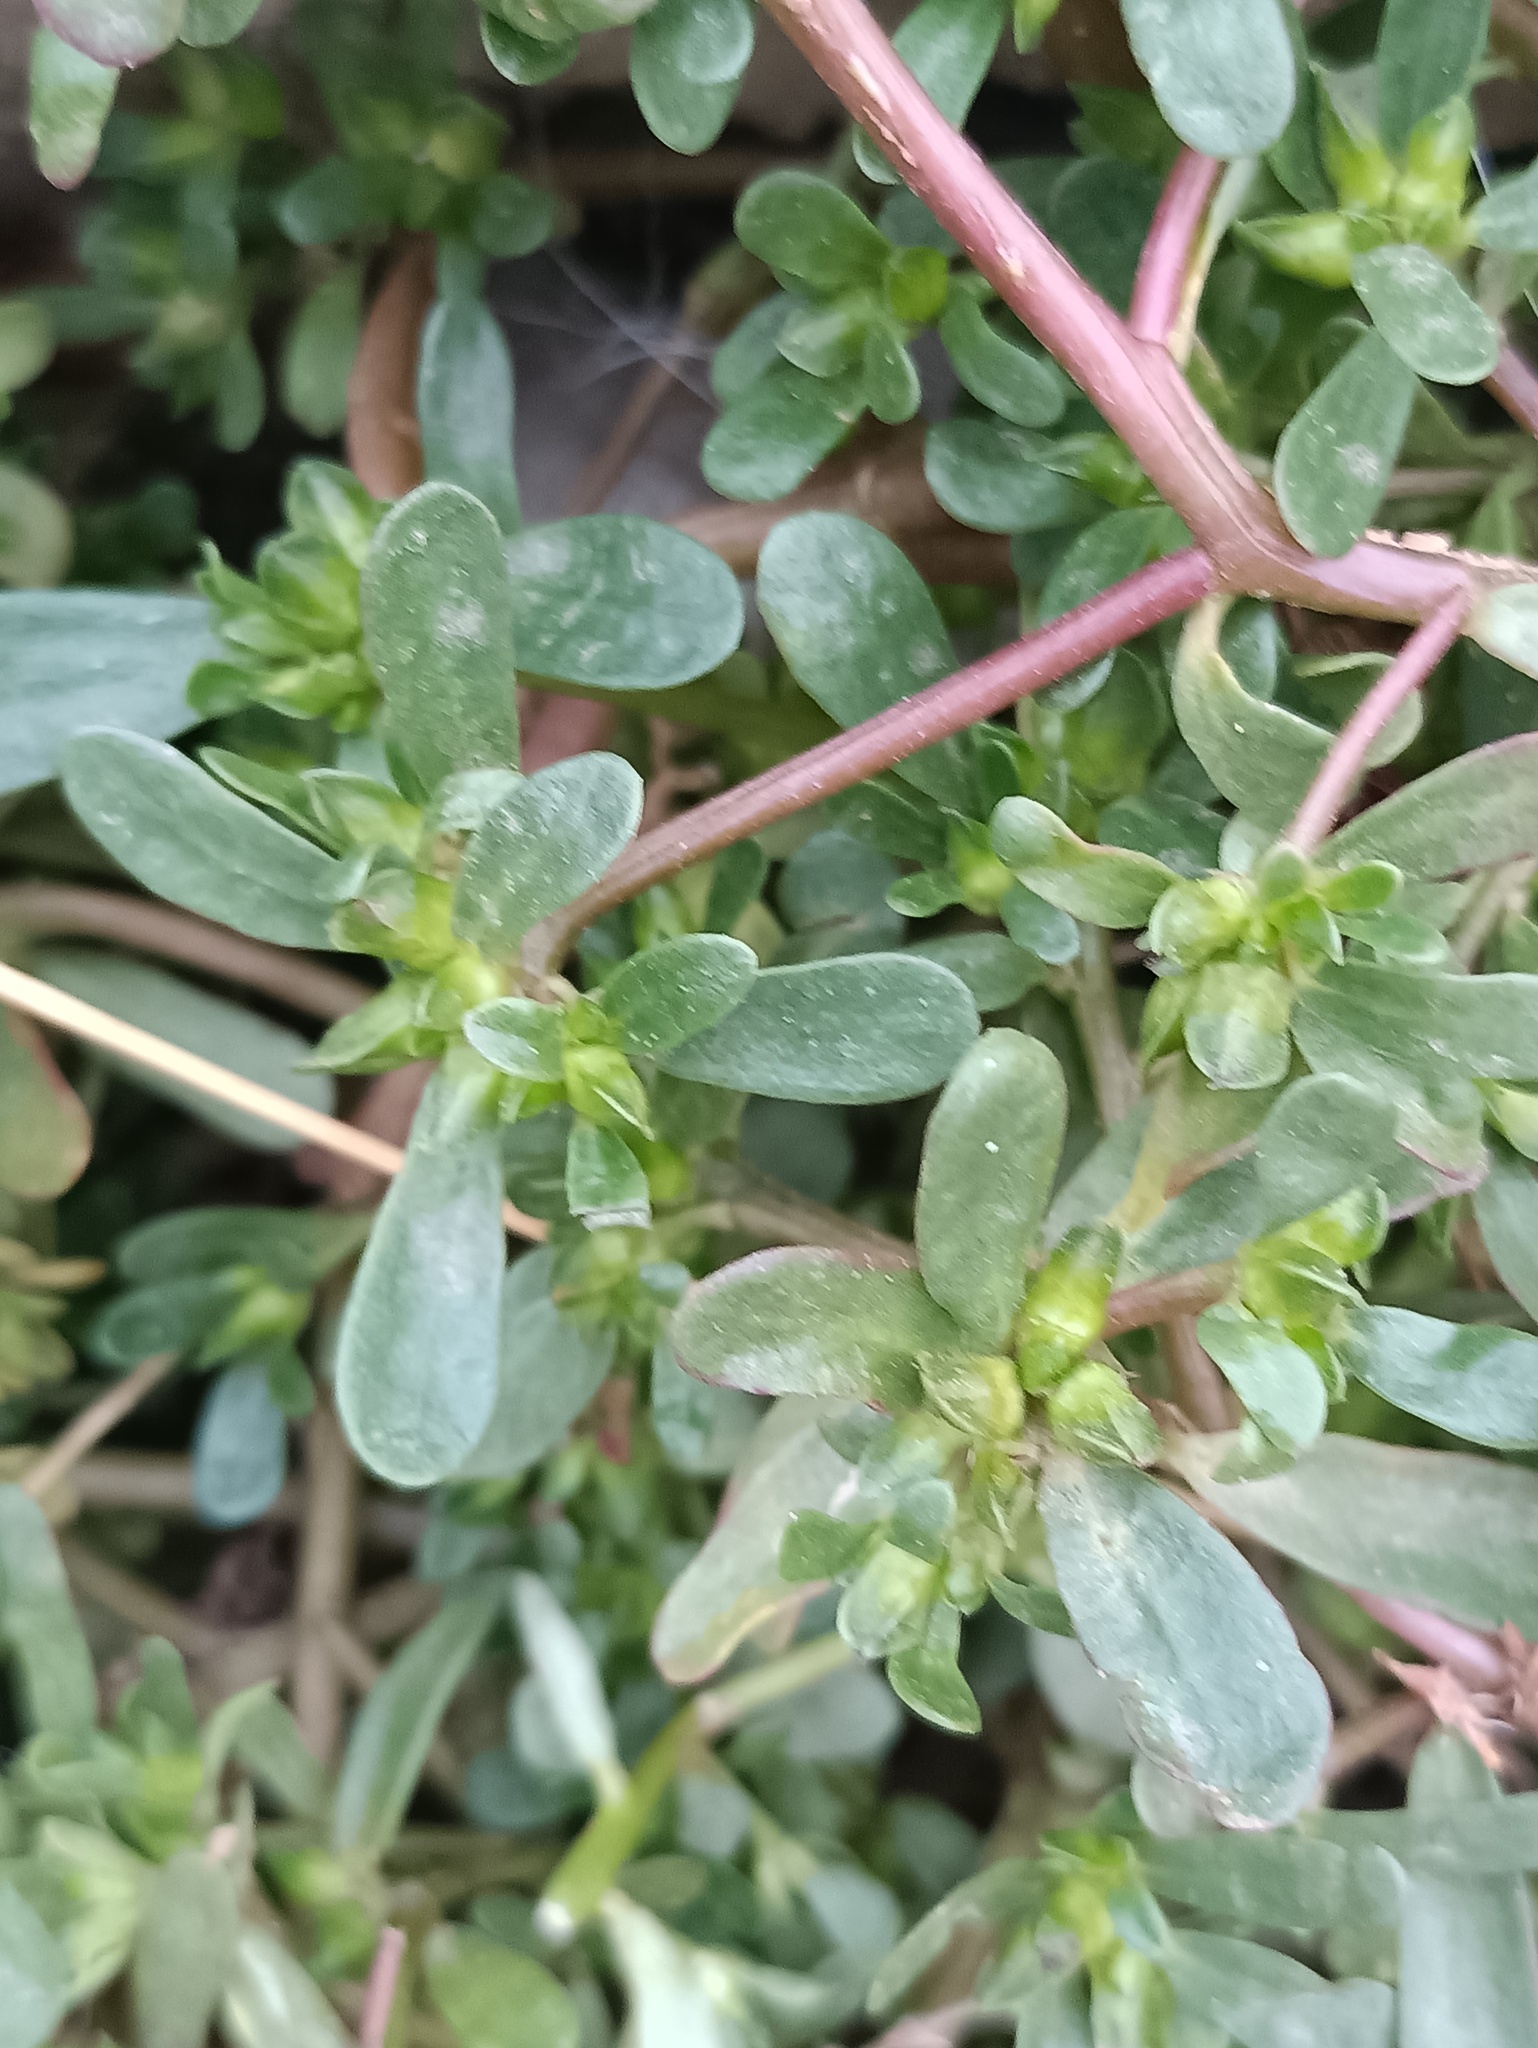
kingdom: Plantae
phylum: Tracheophyta
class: Magnoliopsida
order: Caryophyllales
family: Portulacaceae
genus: Portulaca
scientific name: Portulaca oleracea
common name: Common purslane
